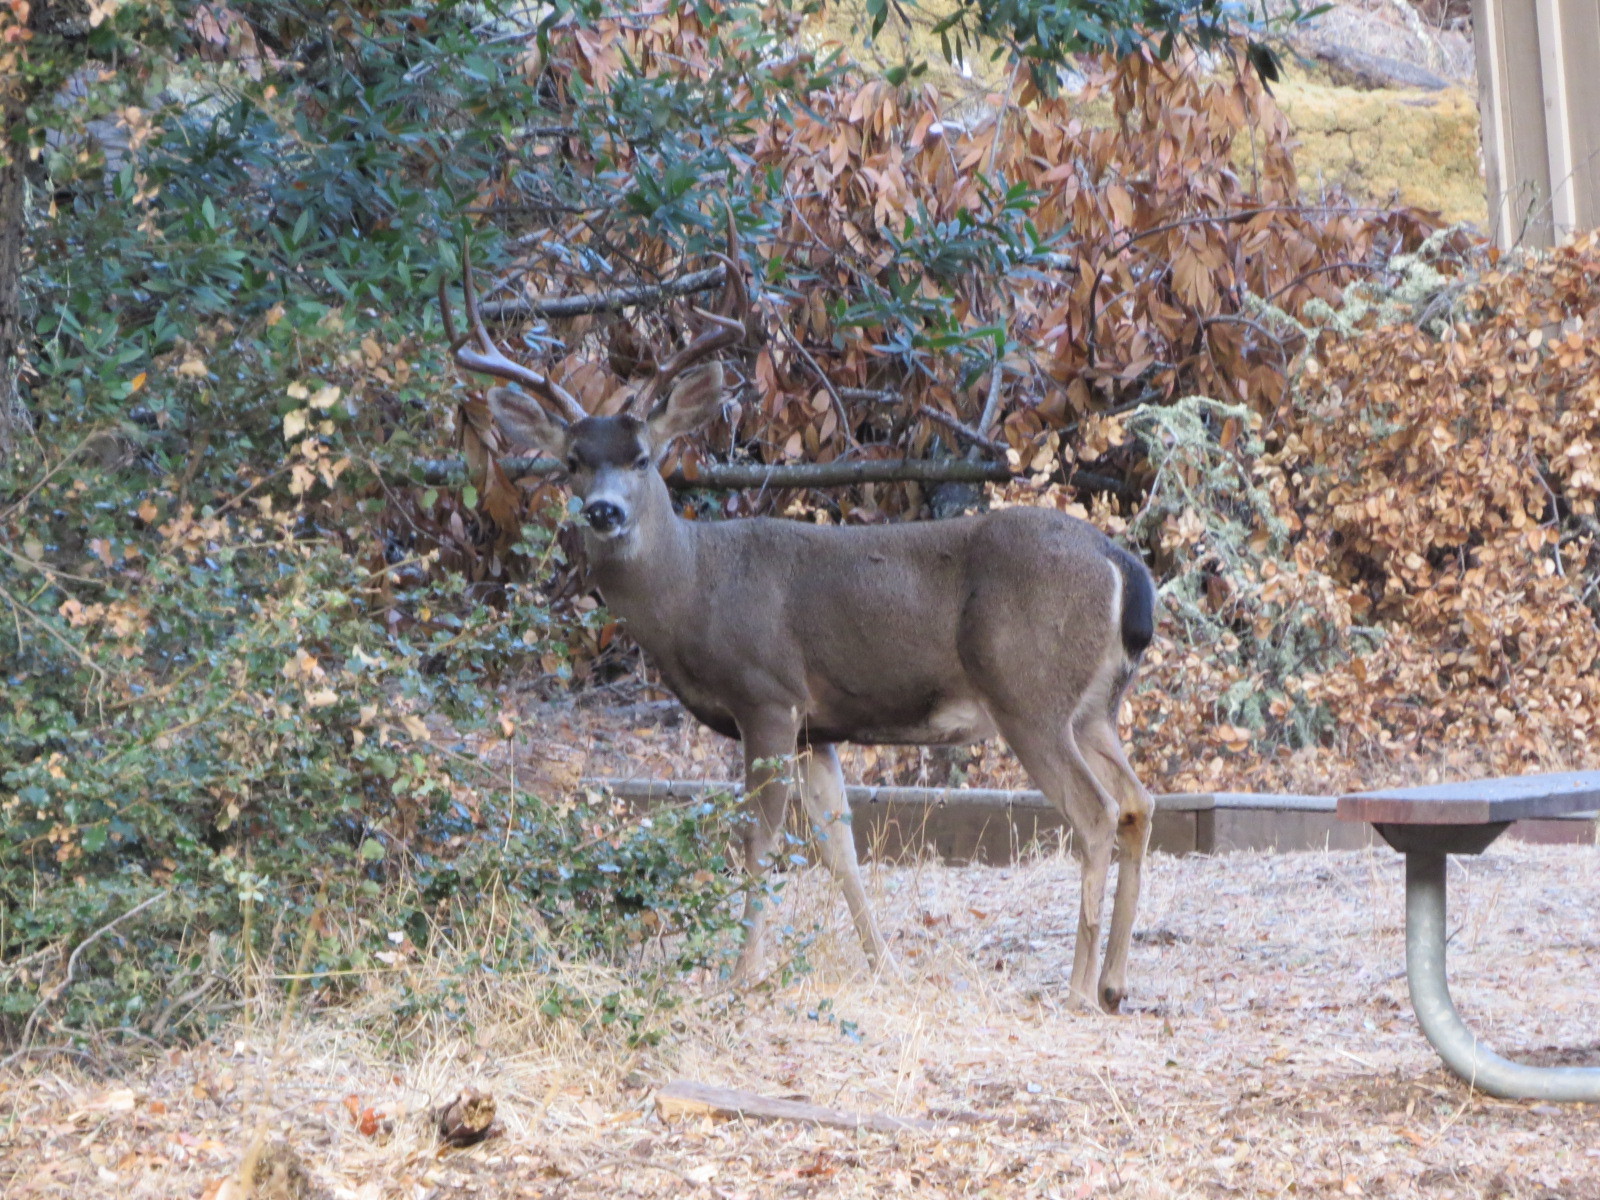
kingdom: Animalia
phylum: Chordata
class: Mammalia
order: Artiodactyla
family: Cervidae
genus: Odocoileus
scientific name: Odocoileus hemionus
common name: Mule deer
